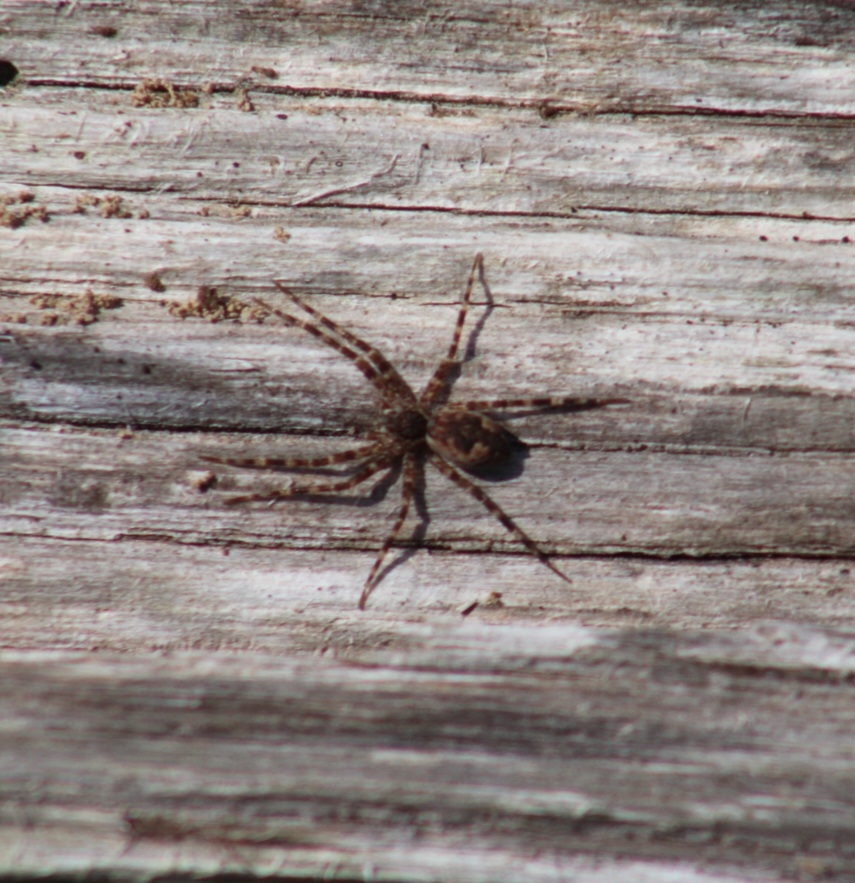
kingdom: Animalia
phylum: Arthropoda
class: Arachnida
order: Araneae
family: Pisauridae
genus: Dolomedes
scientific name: Dolomedes tenebrosus
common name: Dark fishing spider
